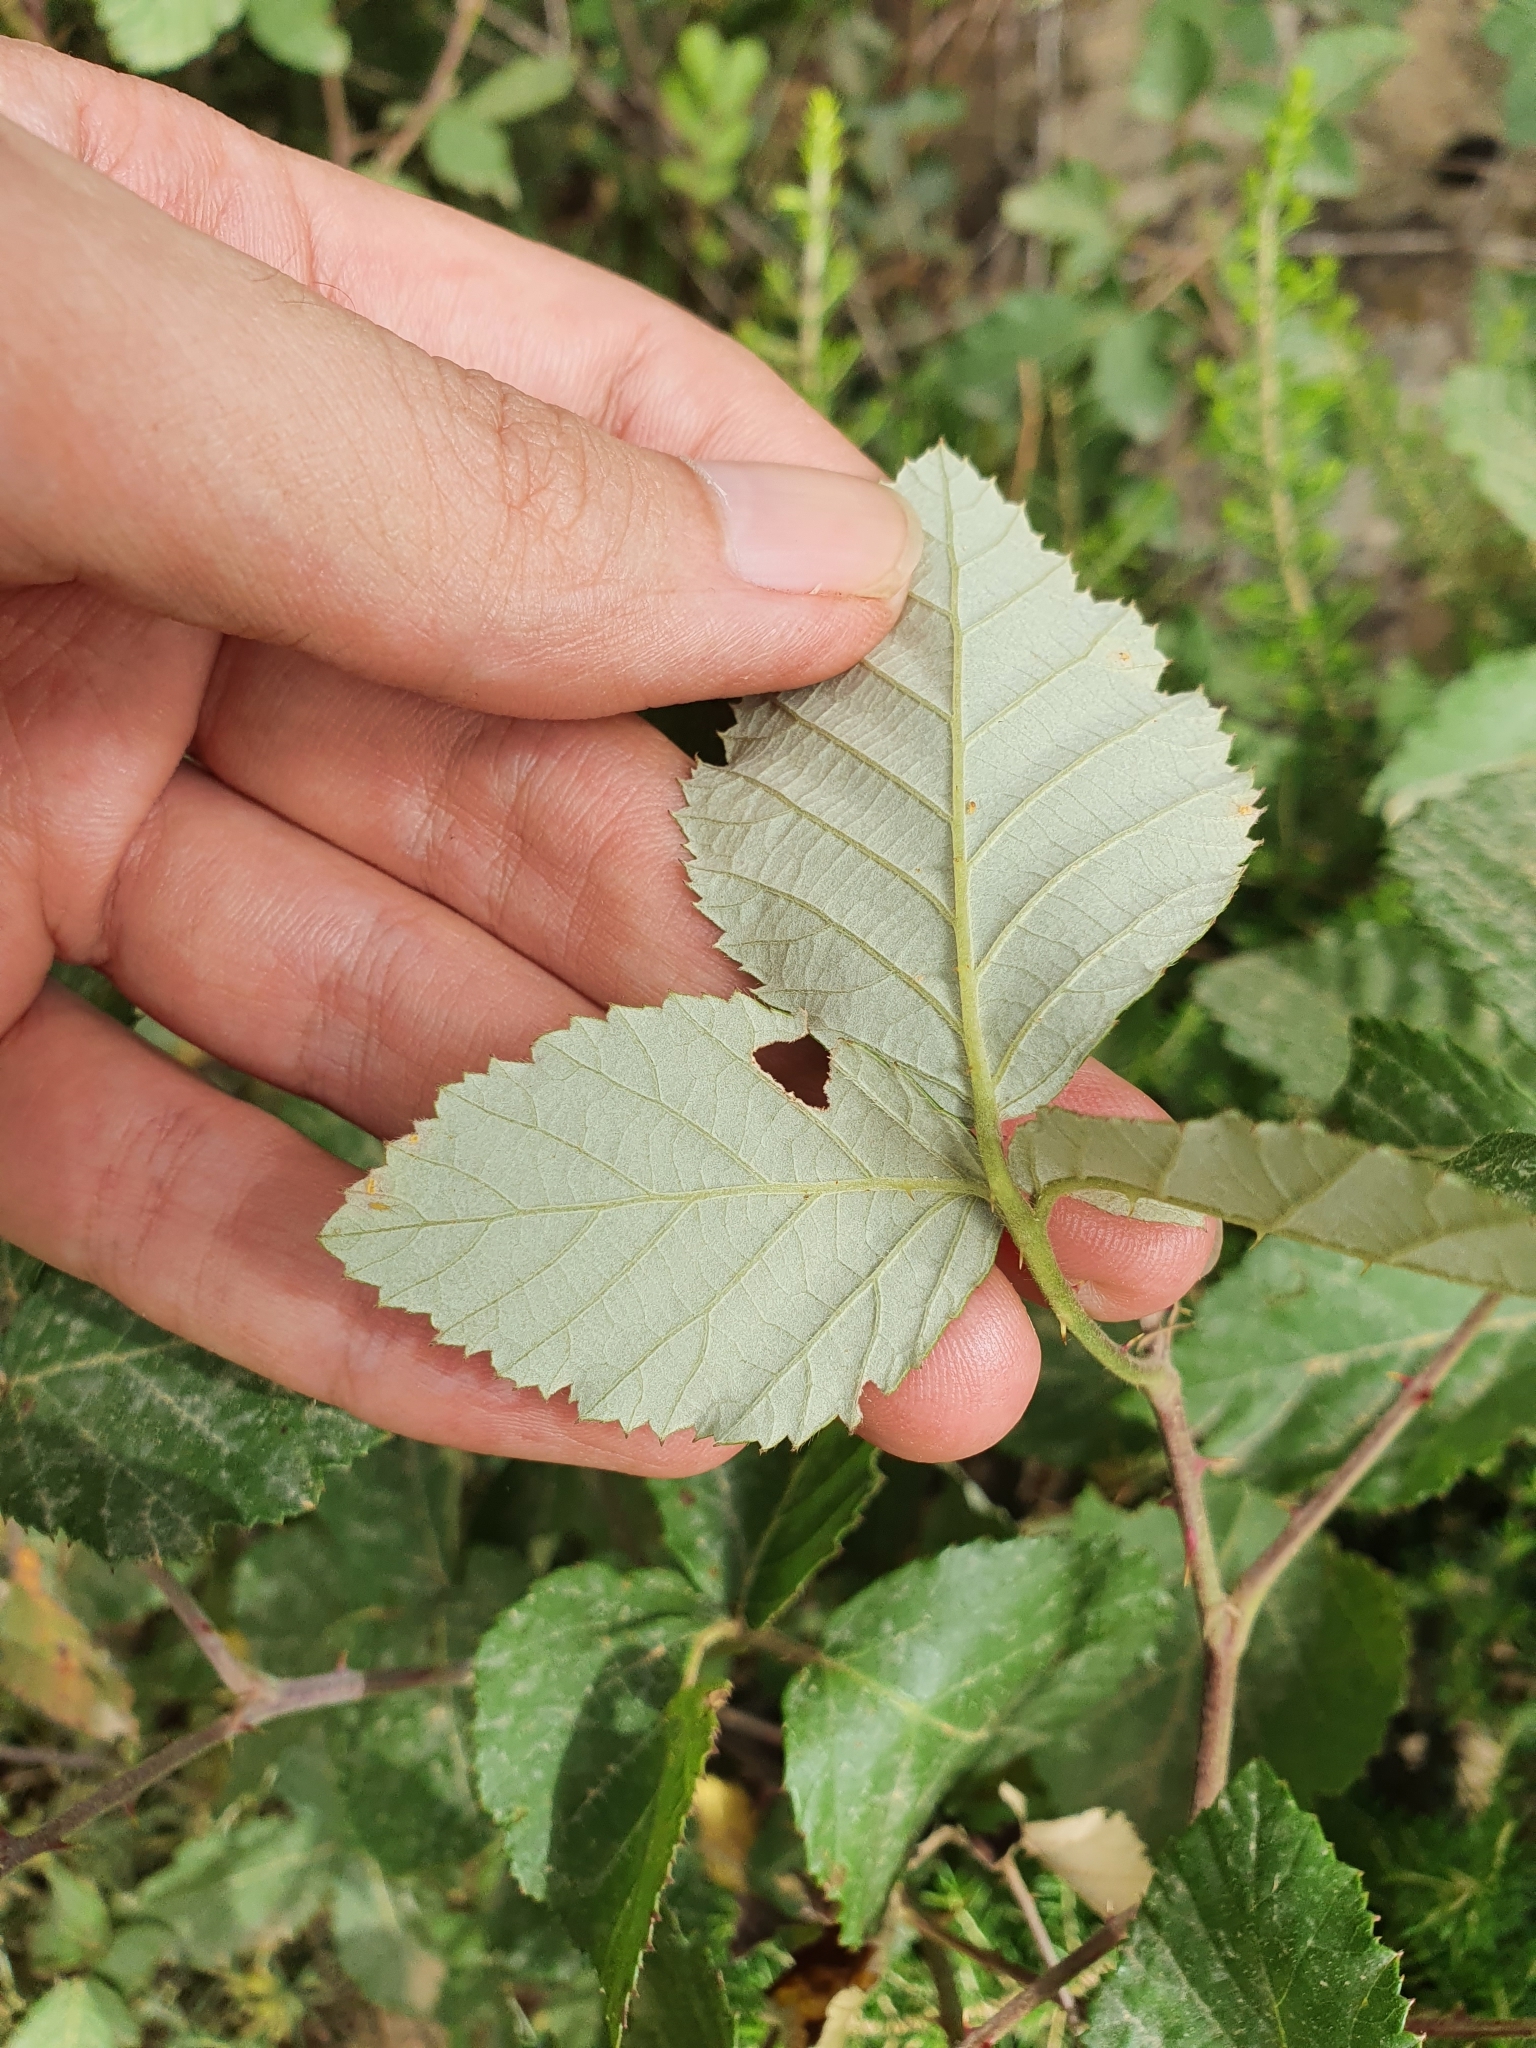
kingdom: Plantae
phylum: Tracheophyta
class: Magnoliopsida
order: Rosales
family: Rosaceae
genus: Rubus
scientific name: Rubus ulmifolius
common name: Elmleaf blackberry
